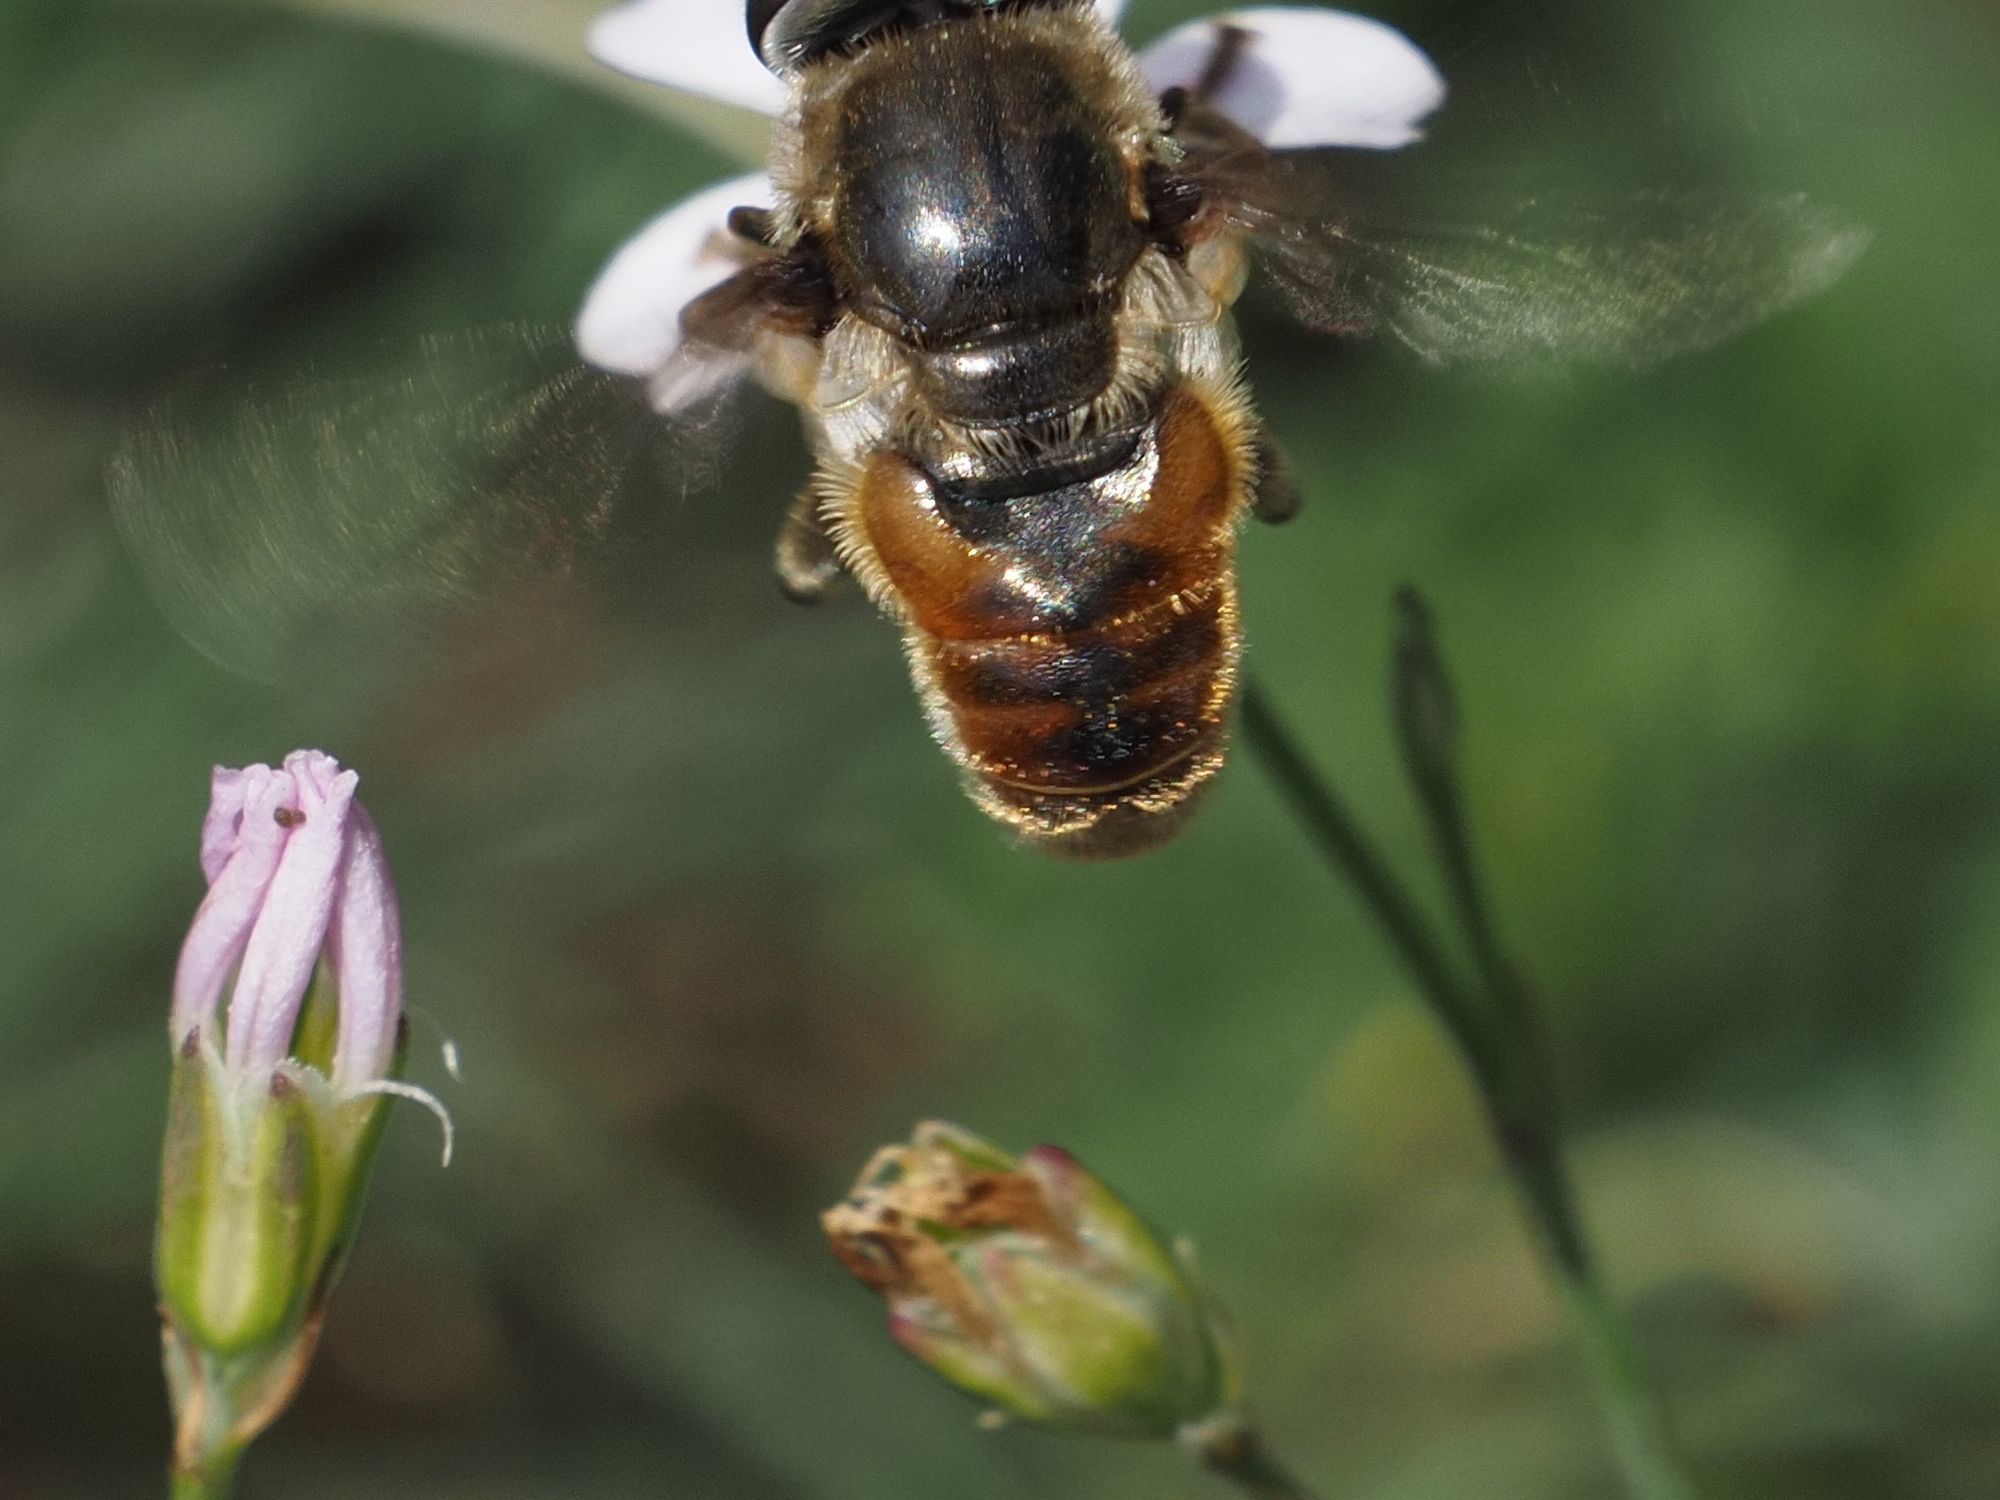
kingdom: Animalia
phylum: Arthropoda
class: Insecta
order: Diptera
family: Syrphidae
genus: Merodon
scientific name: Merodon albifrons
